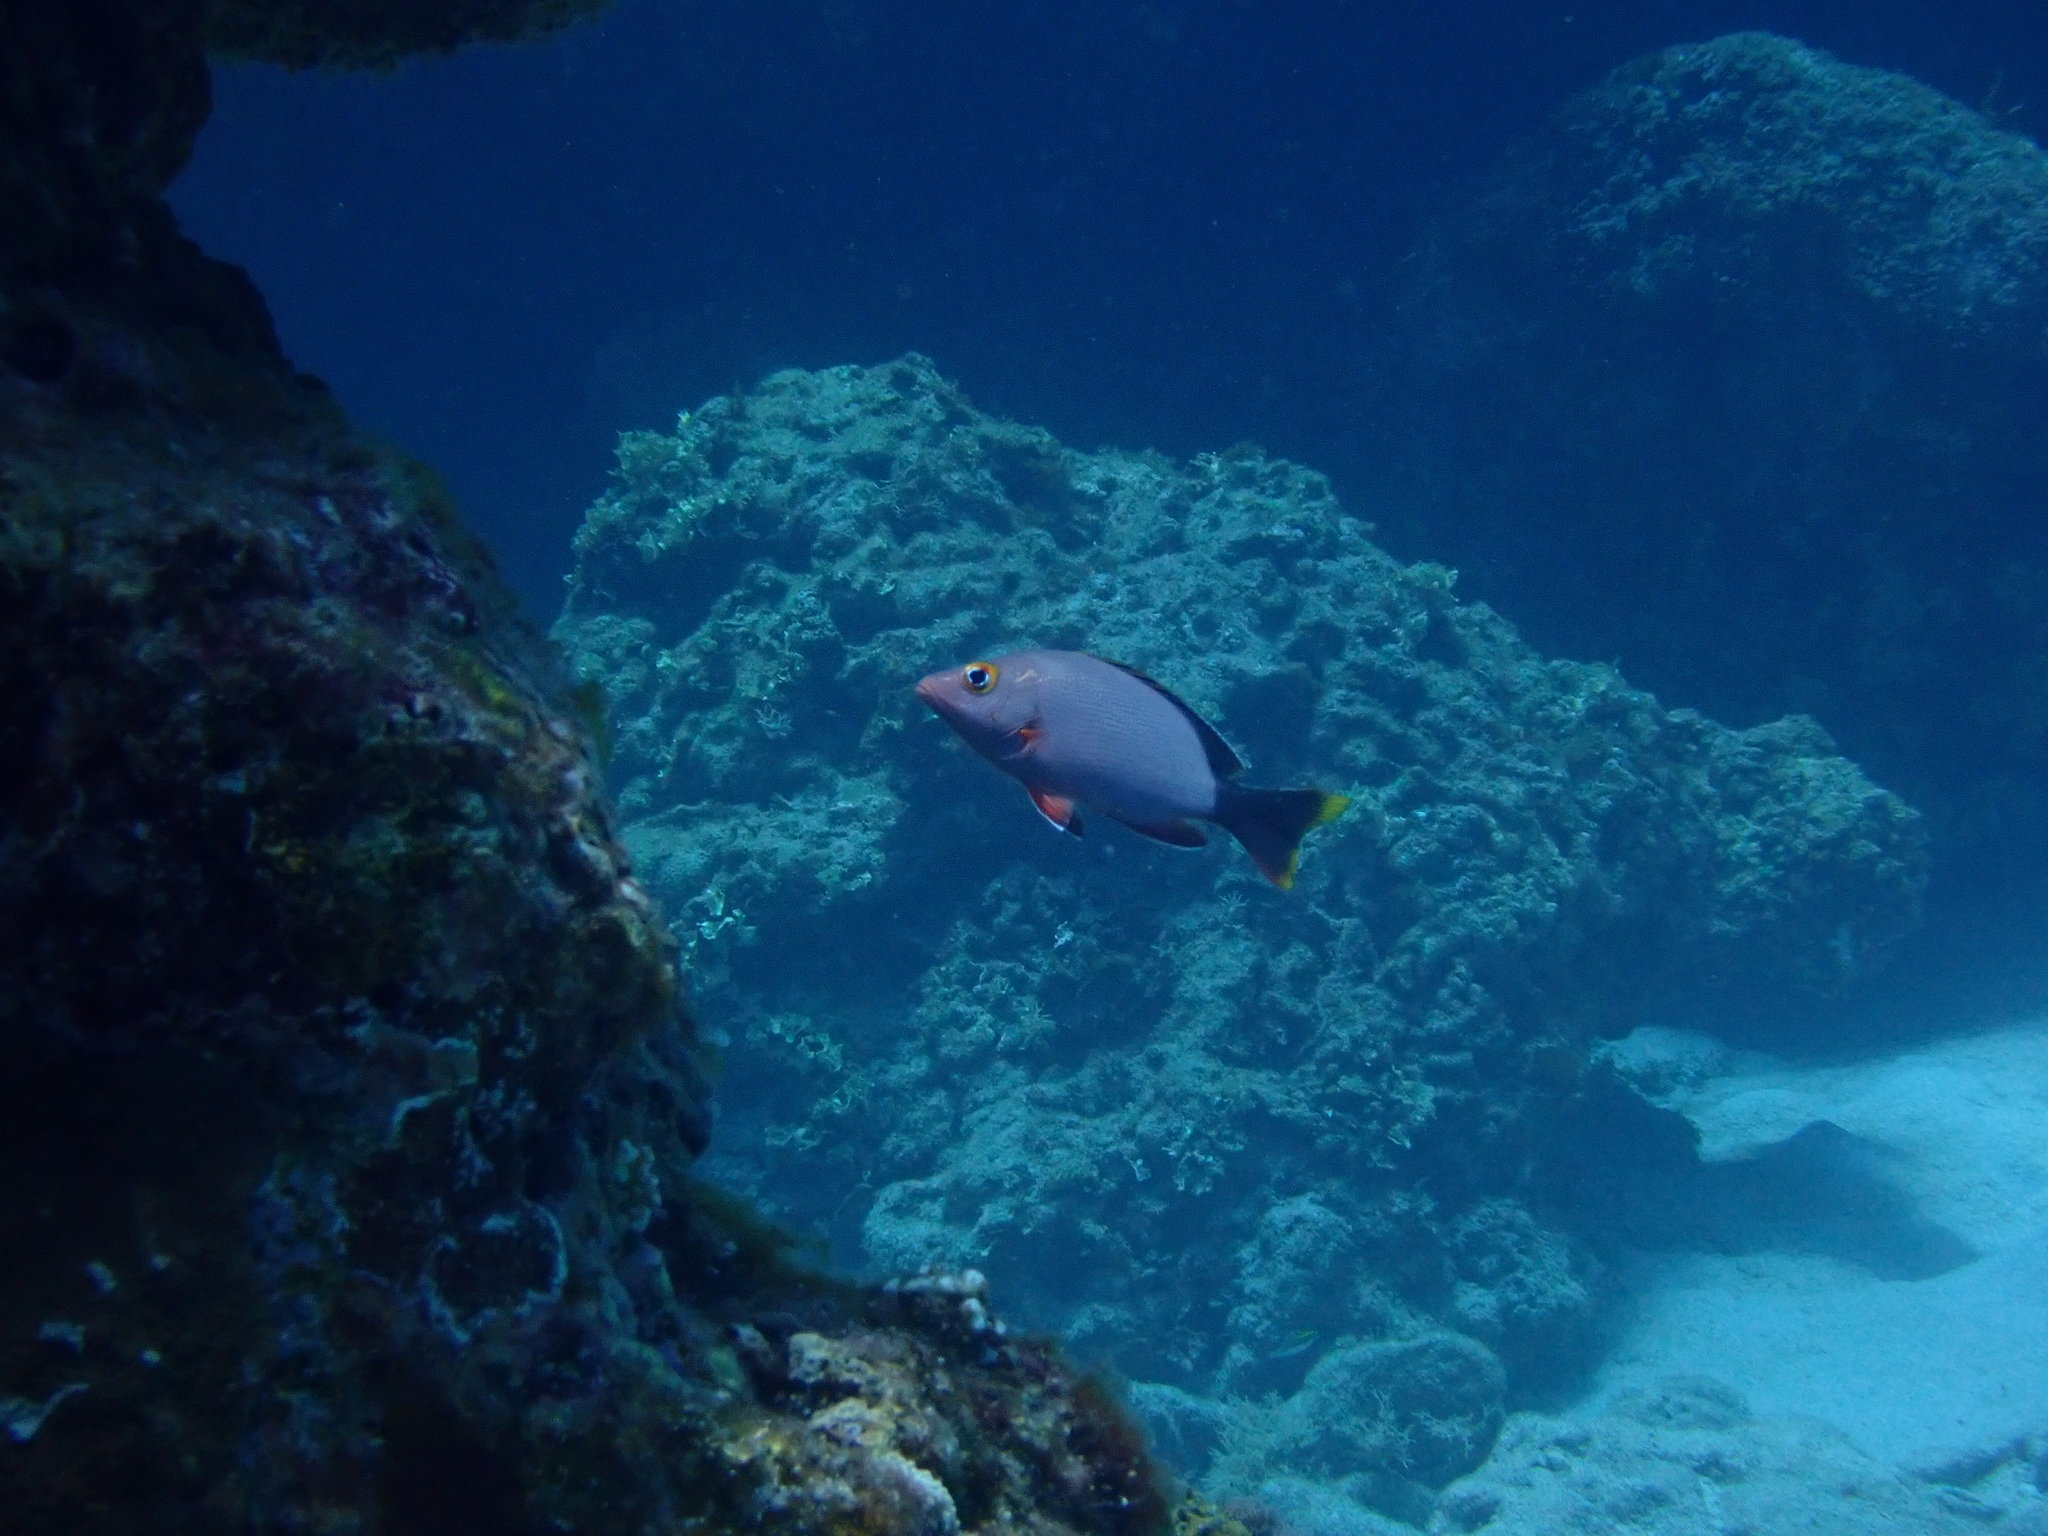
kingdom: Animalia
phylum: Chordata
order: Perciformes
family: Lutjanidae
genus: Lutjanus
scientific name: Lutjanus gibbus
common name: Humpback snapper
